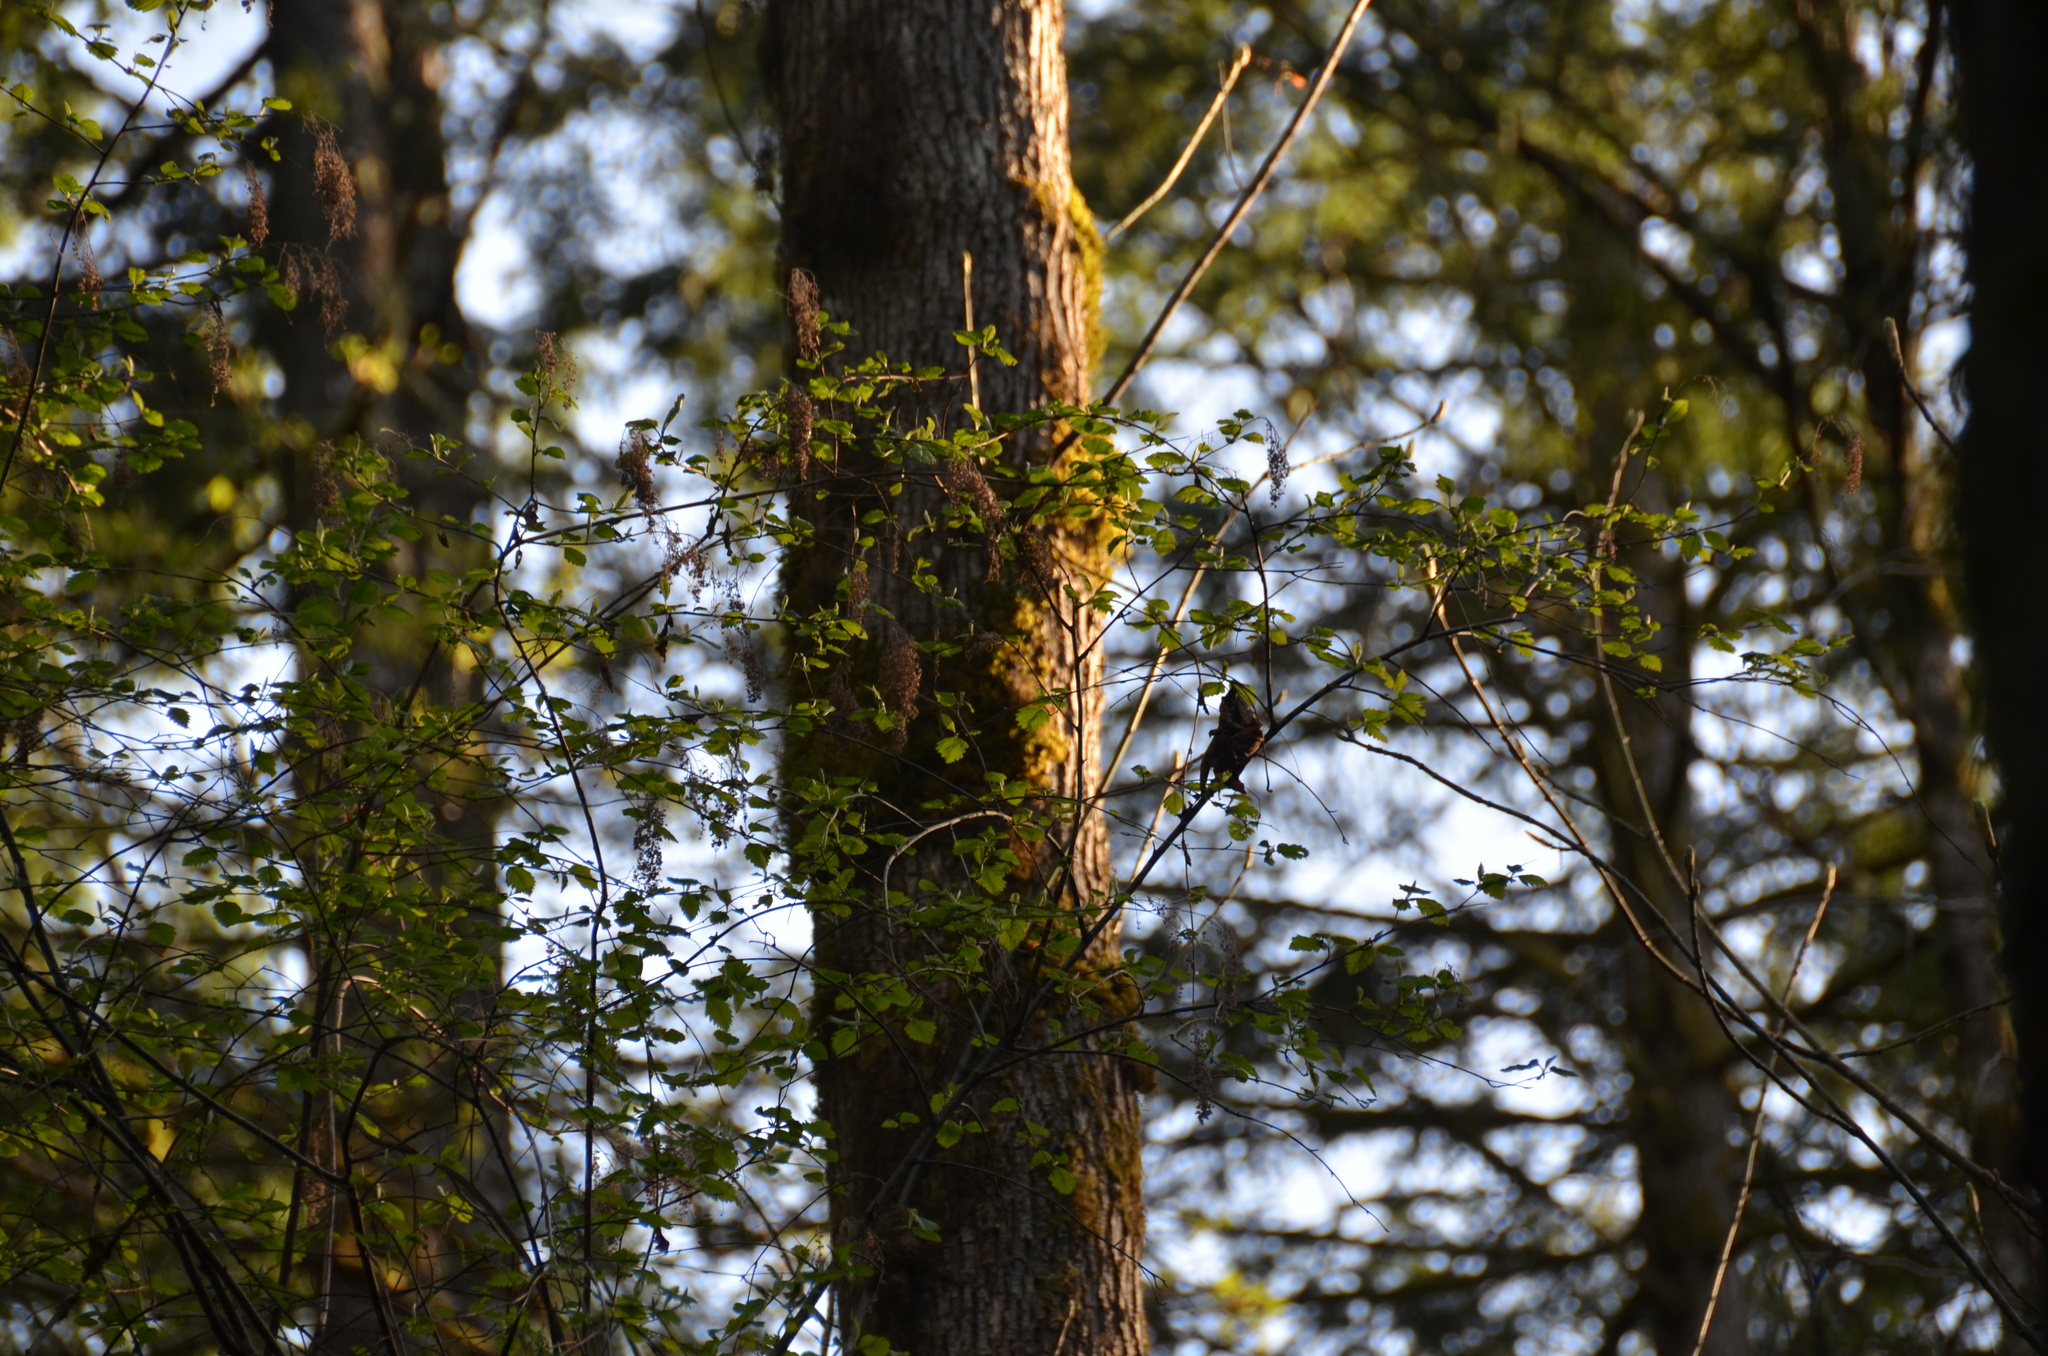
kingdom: Plantae
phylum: Tracheophyta
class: Magnoliopsida
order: Rosales
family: Rosaceae
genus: Holodiscus
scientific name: Holodiscus discolor
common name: Oceanspray
